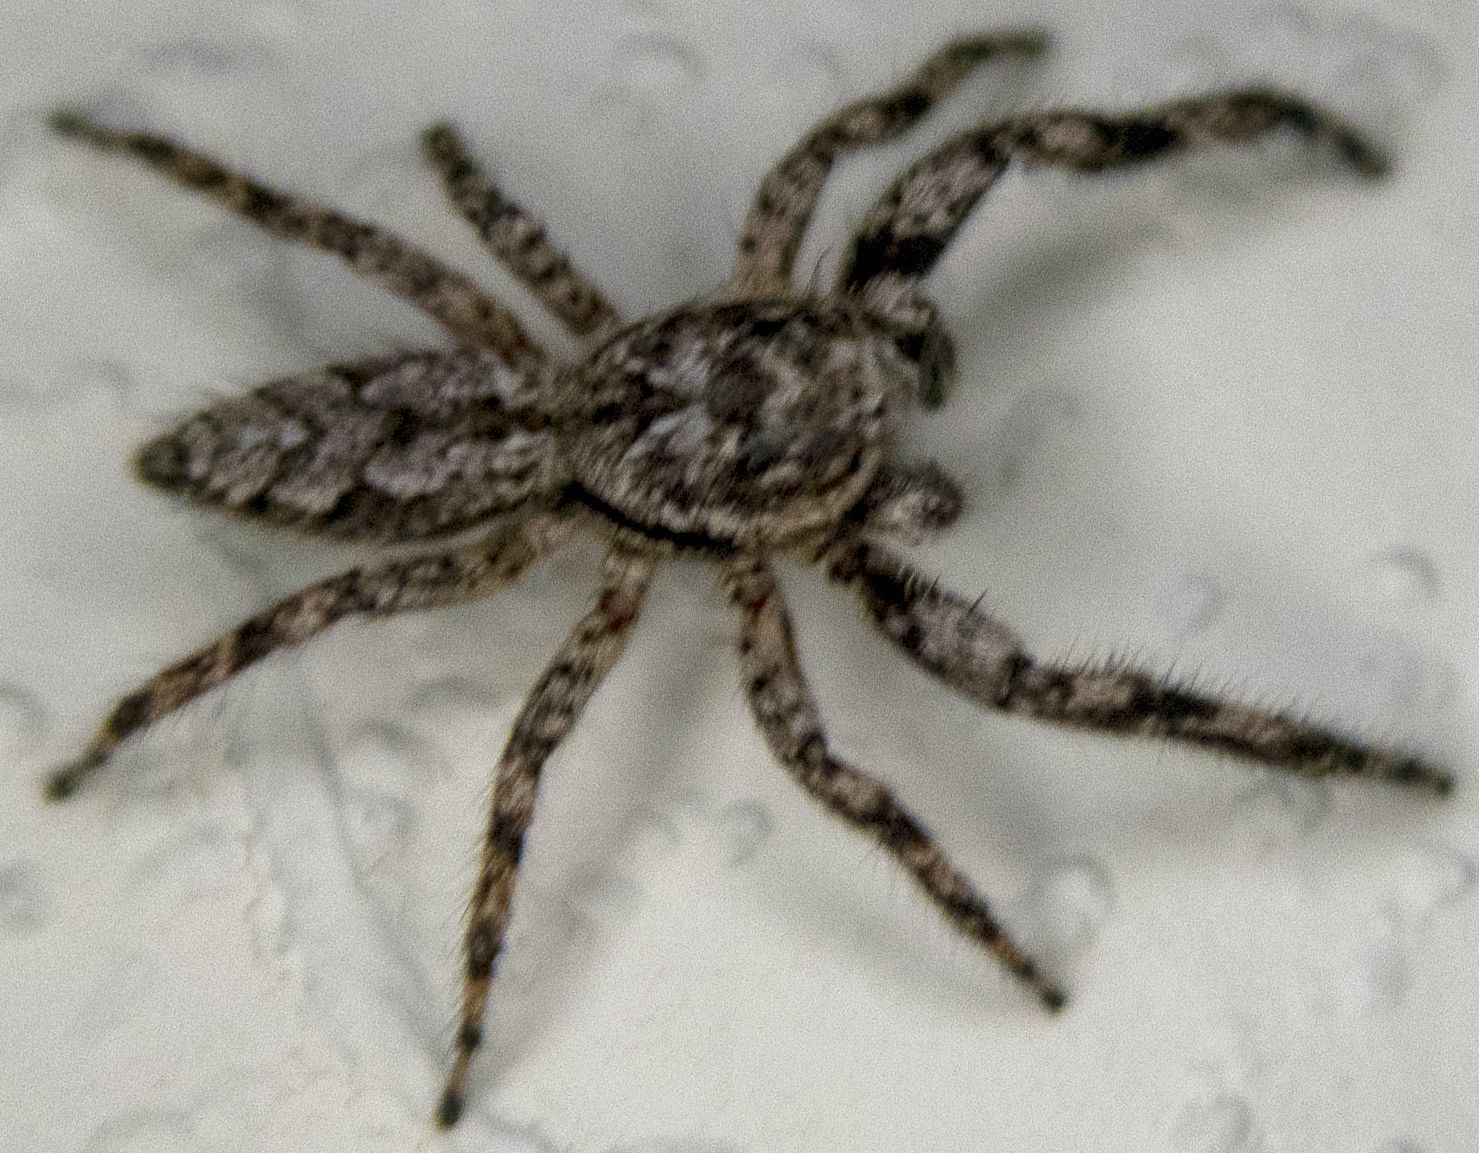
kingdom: Animalia
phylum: Arthropoda
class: Arachnida
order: Araneae
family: Salticidae
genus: Platycryptus
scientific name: Platycryptus undatus
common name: Tan jumping spider
